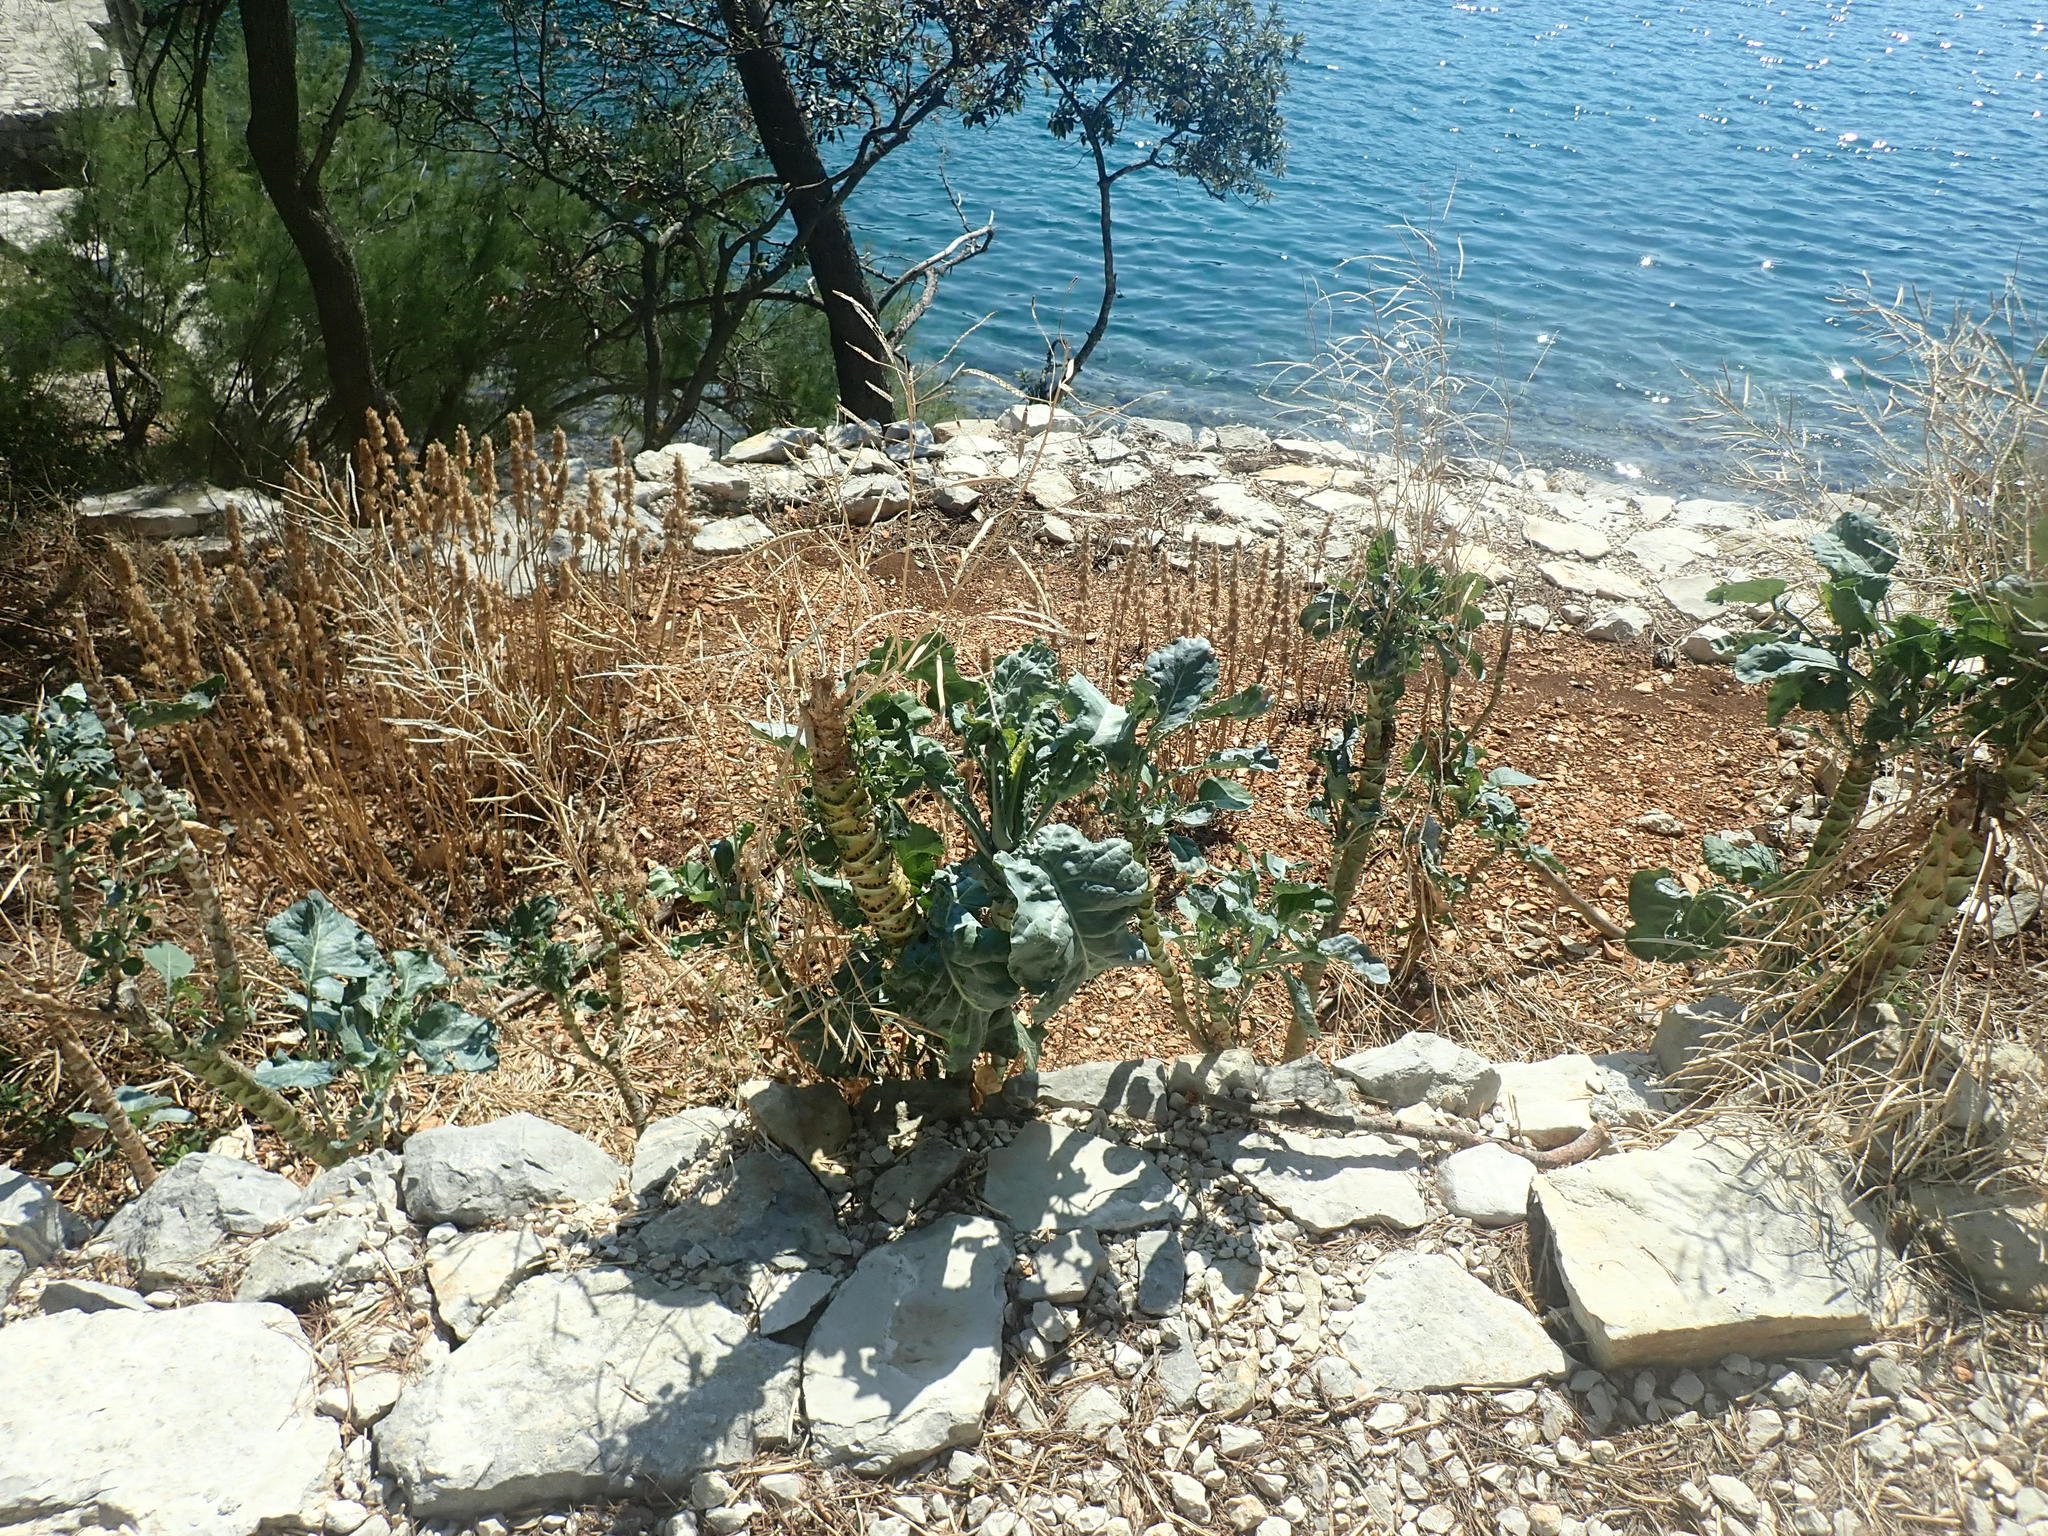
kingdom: Plantae
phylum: Tracheophyta
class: Magnoliopsida
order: Brassicales
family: Brassicaceae
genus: Brassica
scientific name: Brassica oleracea
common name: Cabbage
